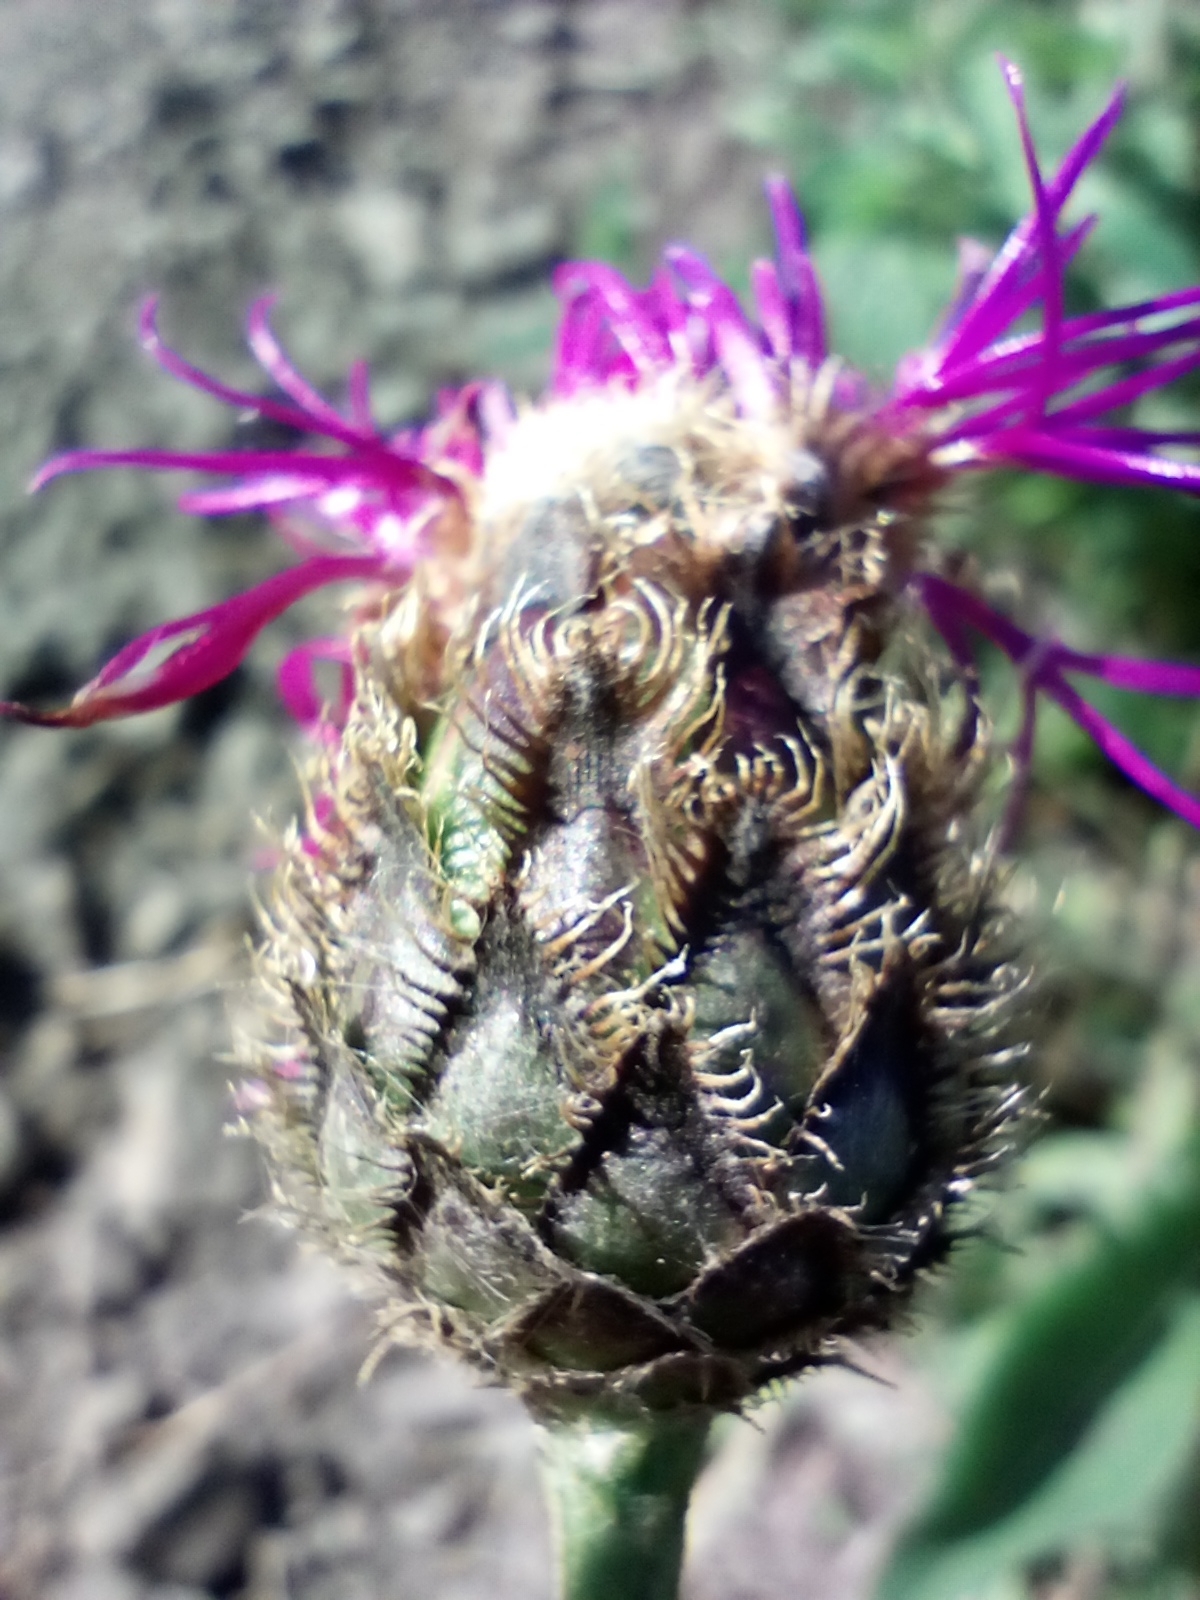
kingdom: Plantae
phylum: Tracheophyta
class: Magnoliopsida
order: Asterales
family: Asteraceae
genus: Centaurea
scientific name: Centaurea scabiosa
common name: Greater knapweed
